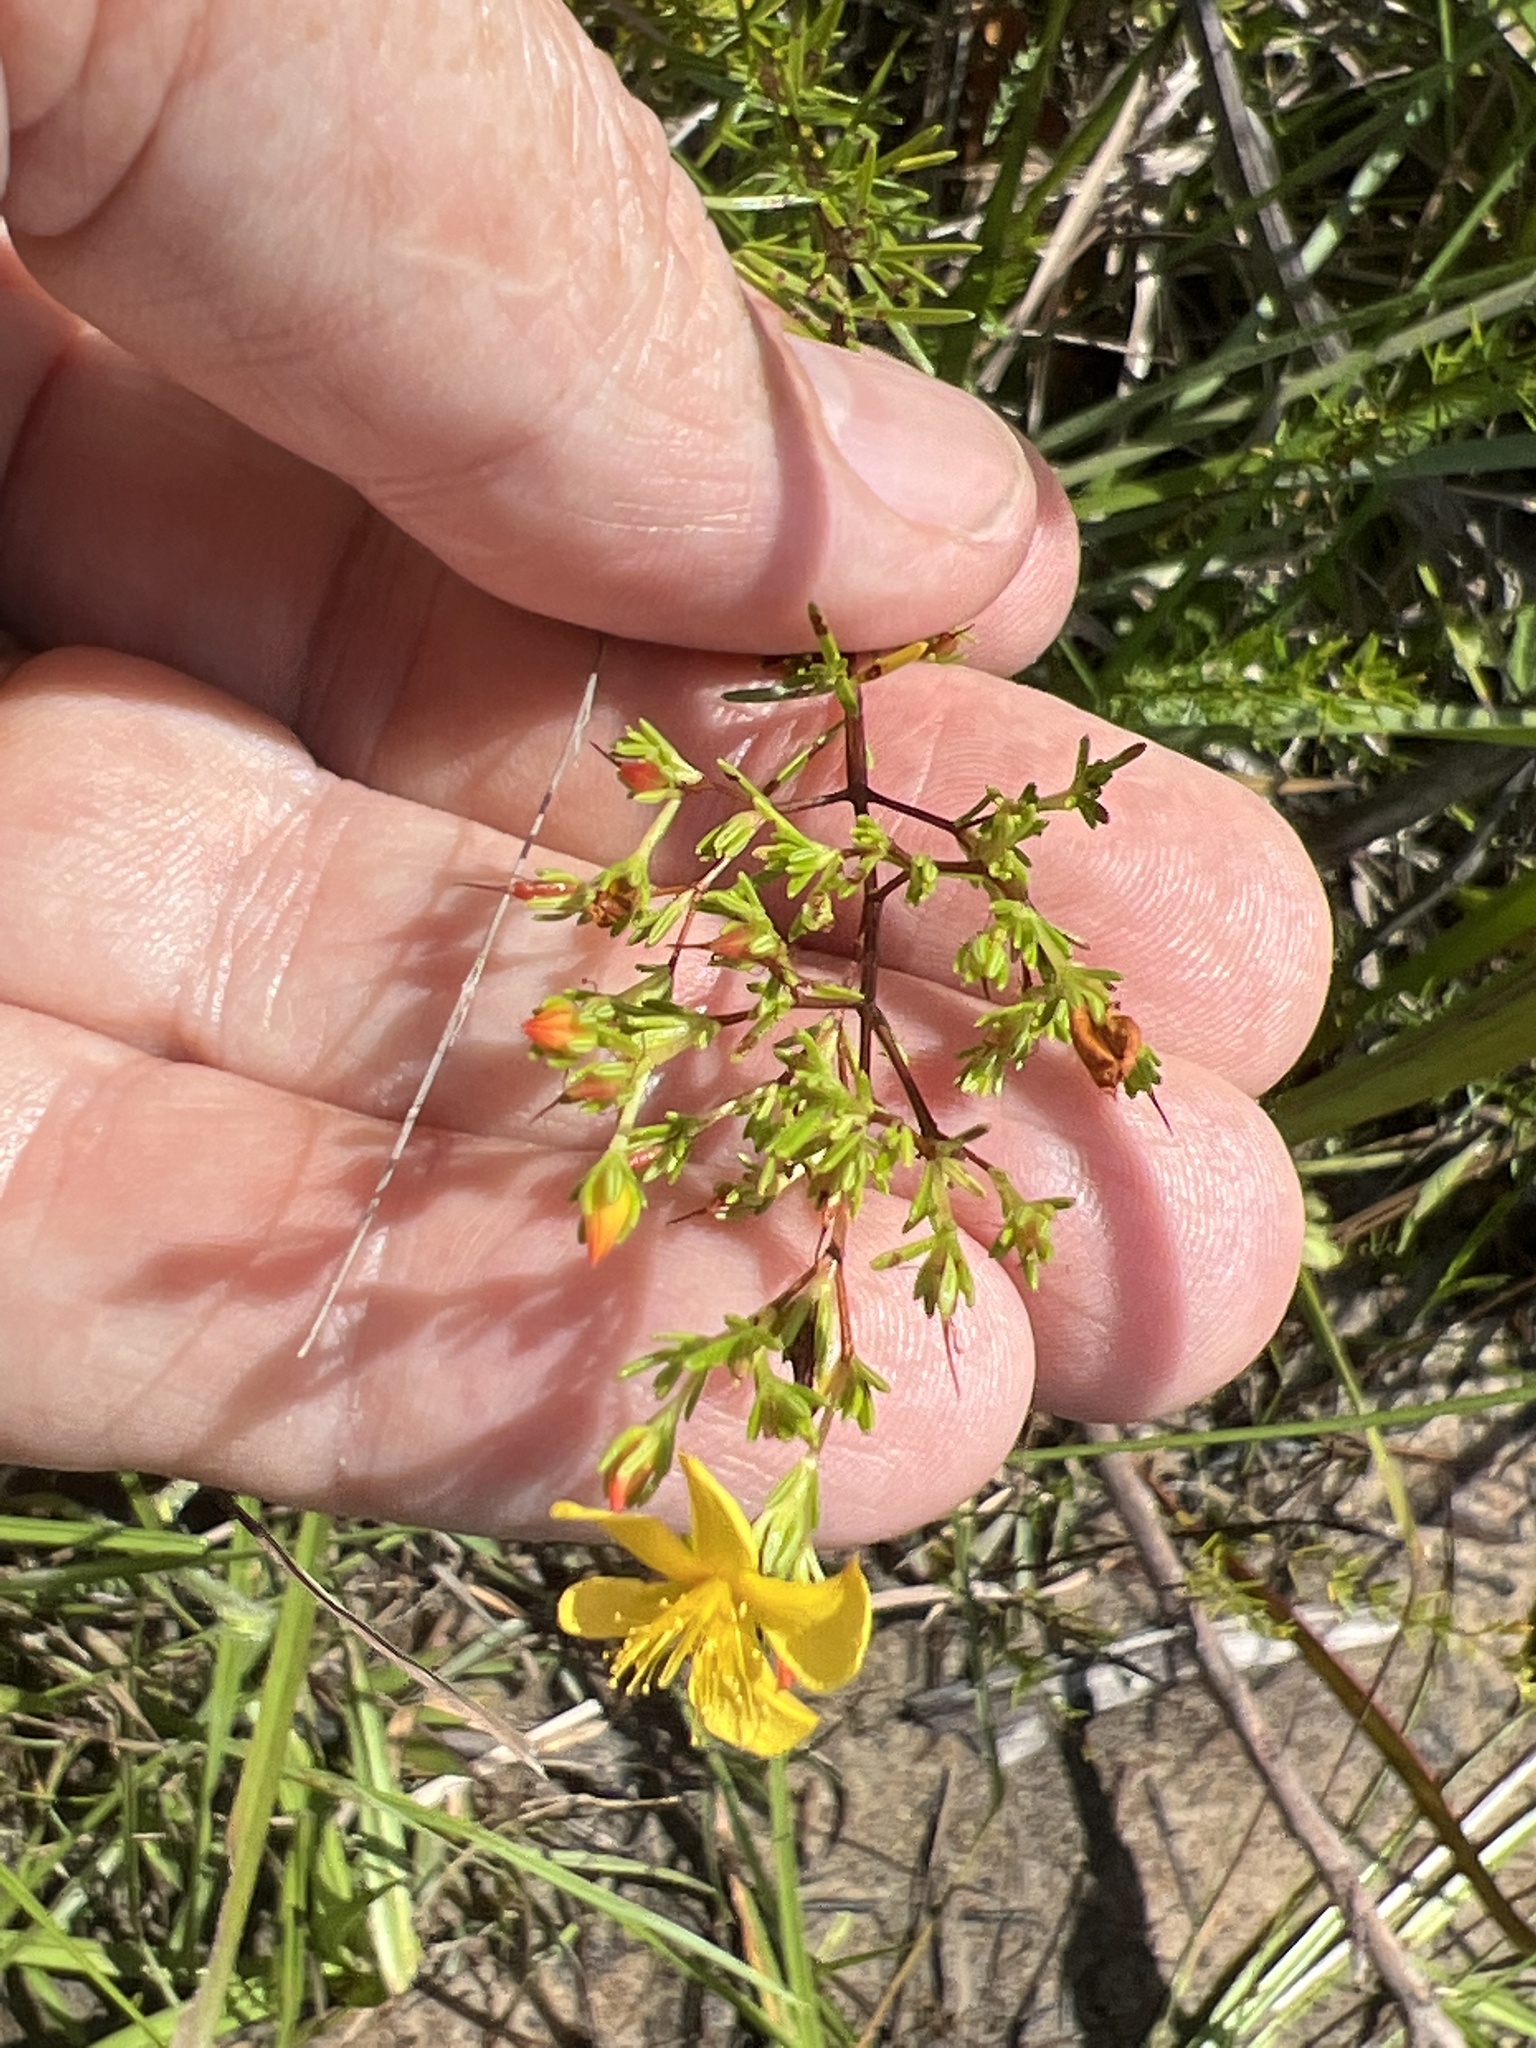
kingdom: Plantae
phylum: Tracheophyta
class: Magnoliopsida
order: Malpighiales
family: Hypericaceae
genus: Hypericum
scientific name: Hypericum brachyphyllum
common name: Coastal plain st. john's-wort
